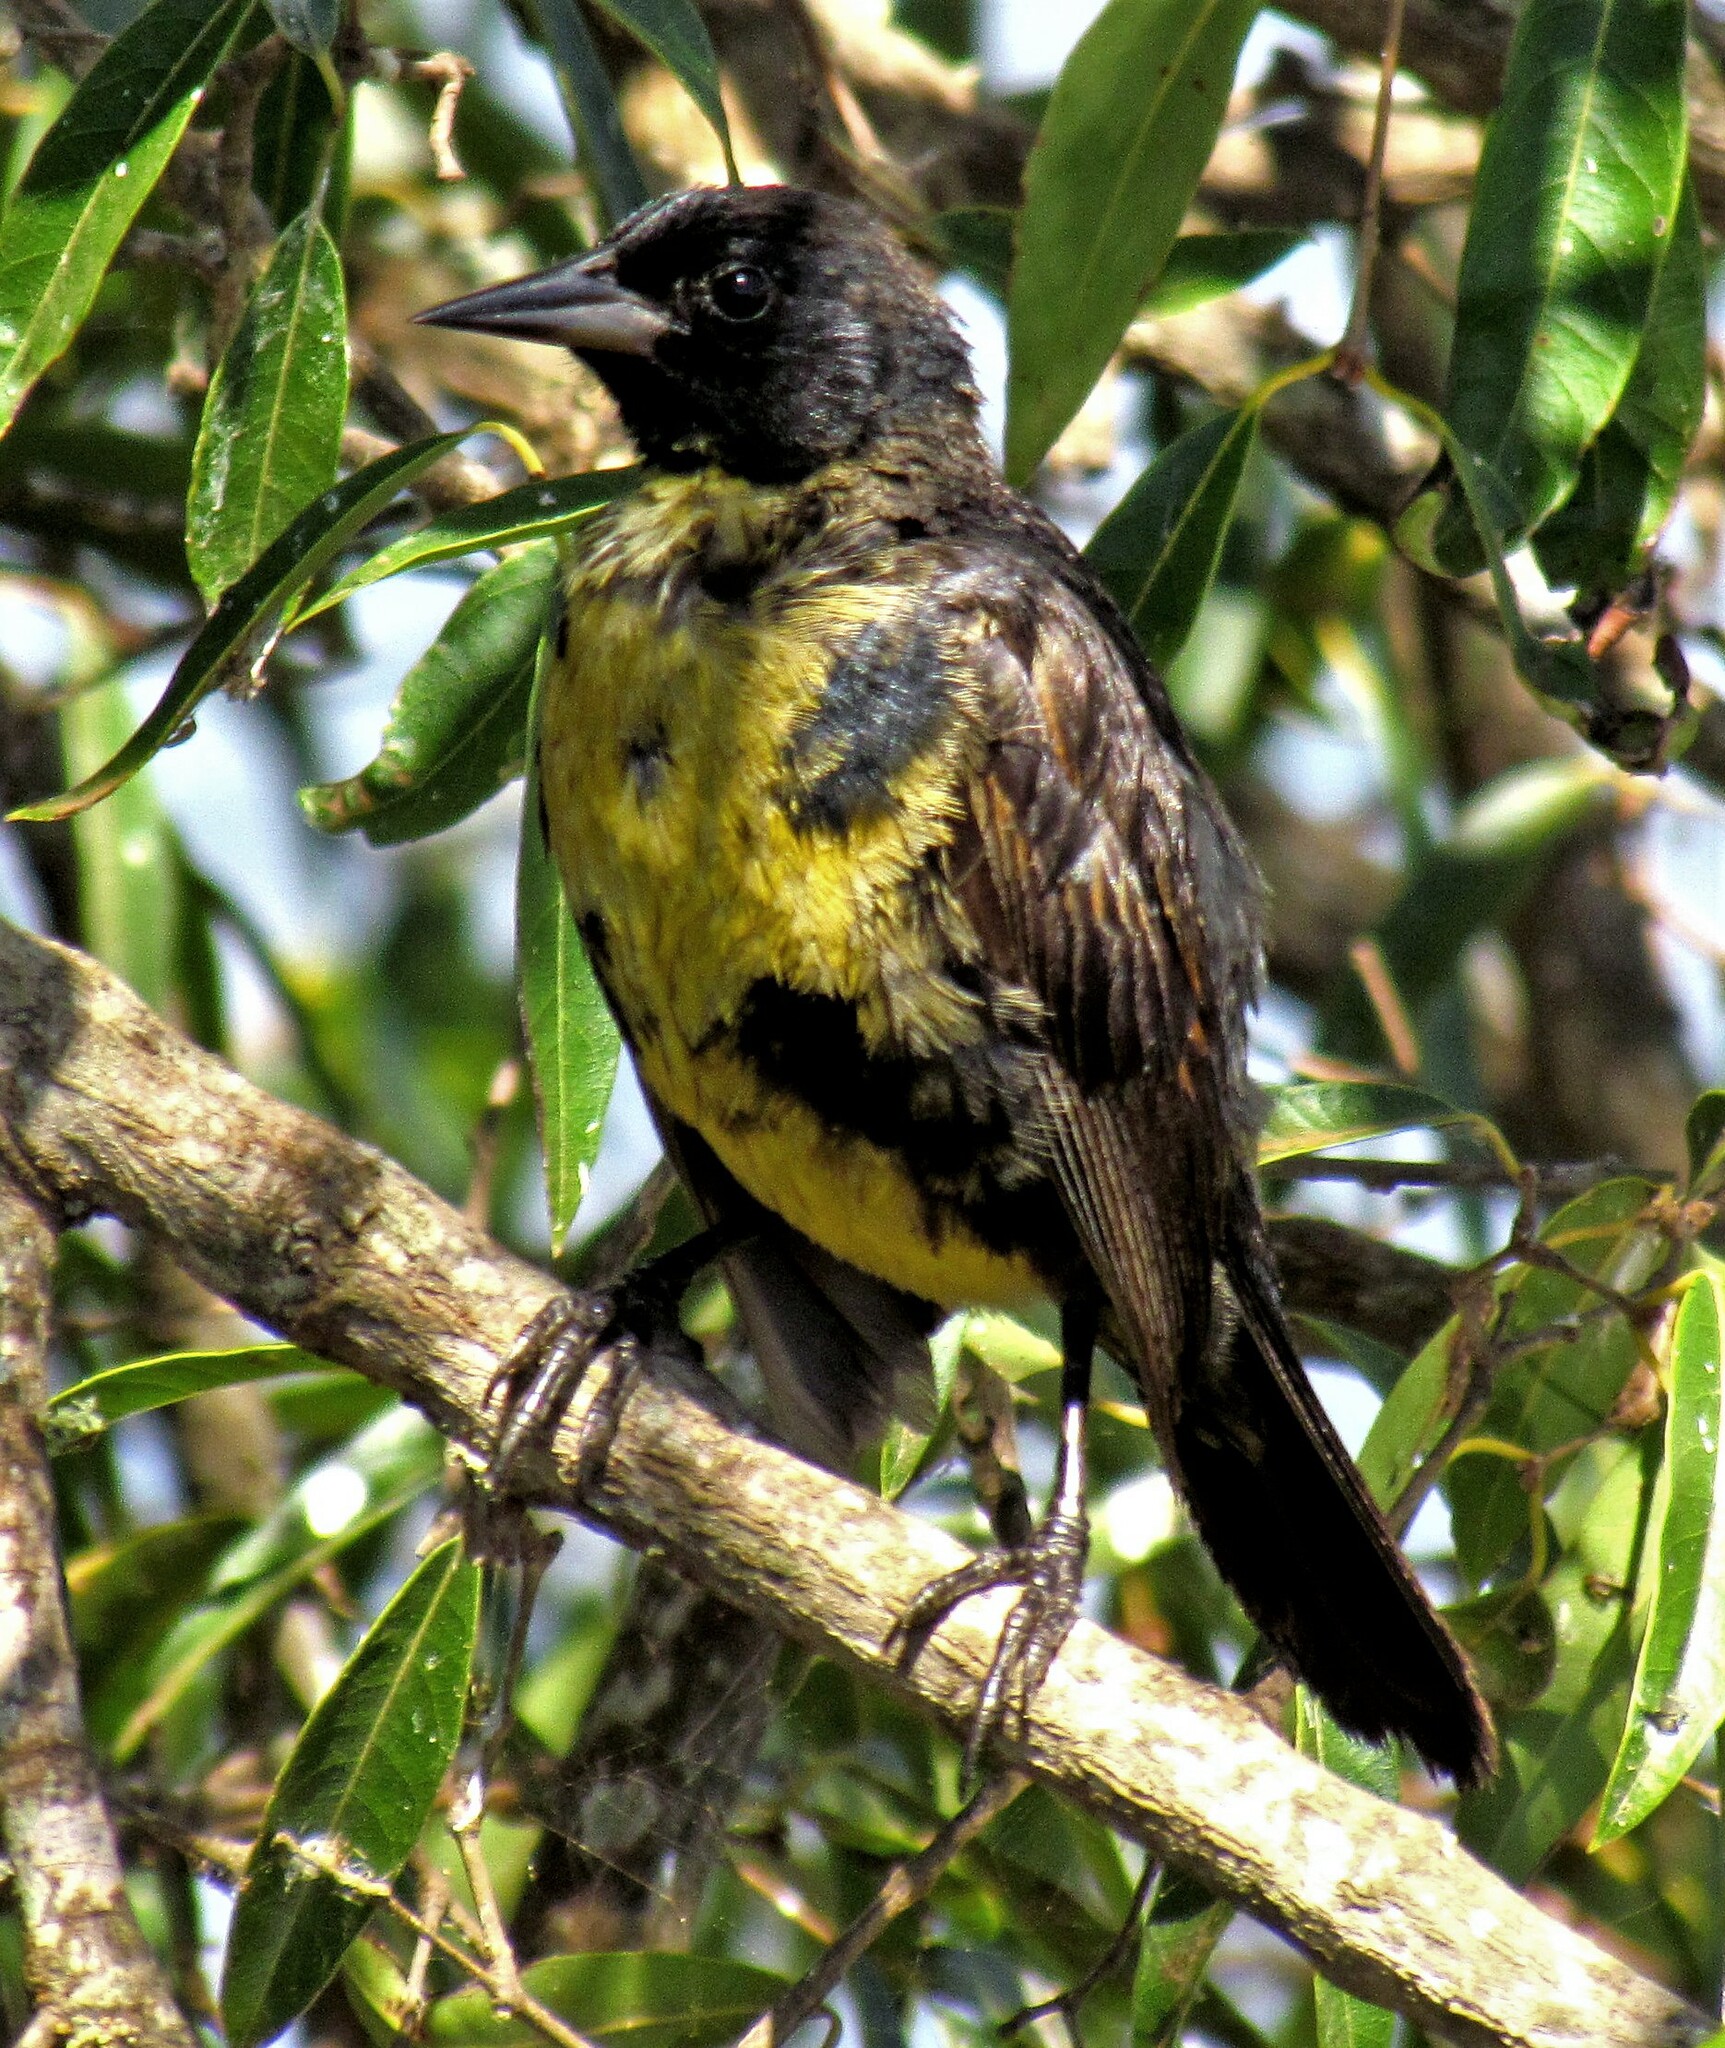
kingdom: Animalia
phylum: Chordata
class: Aves
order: Passeriformes
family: Icteridae
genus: Agelasticus
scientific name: Agelasticus cyanopus
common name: Unicolored blackbird
